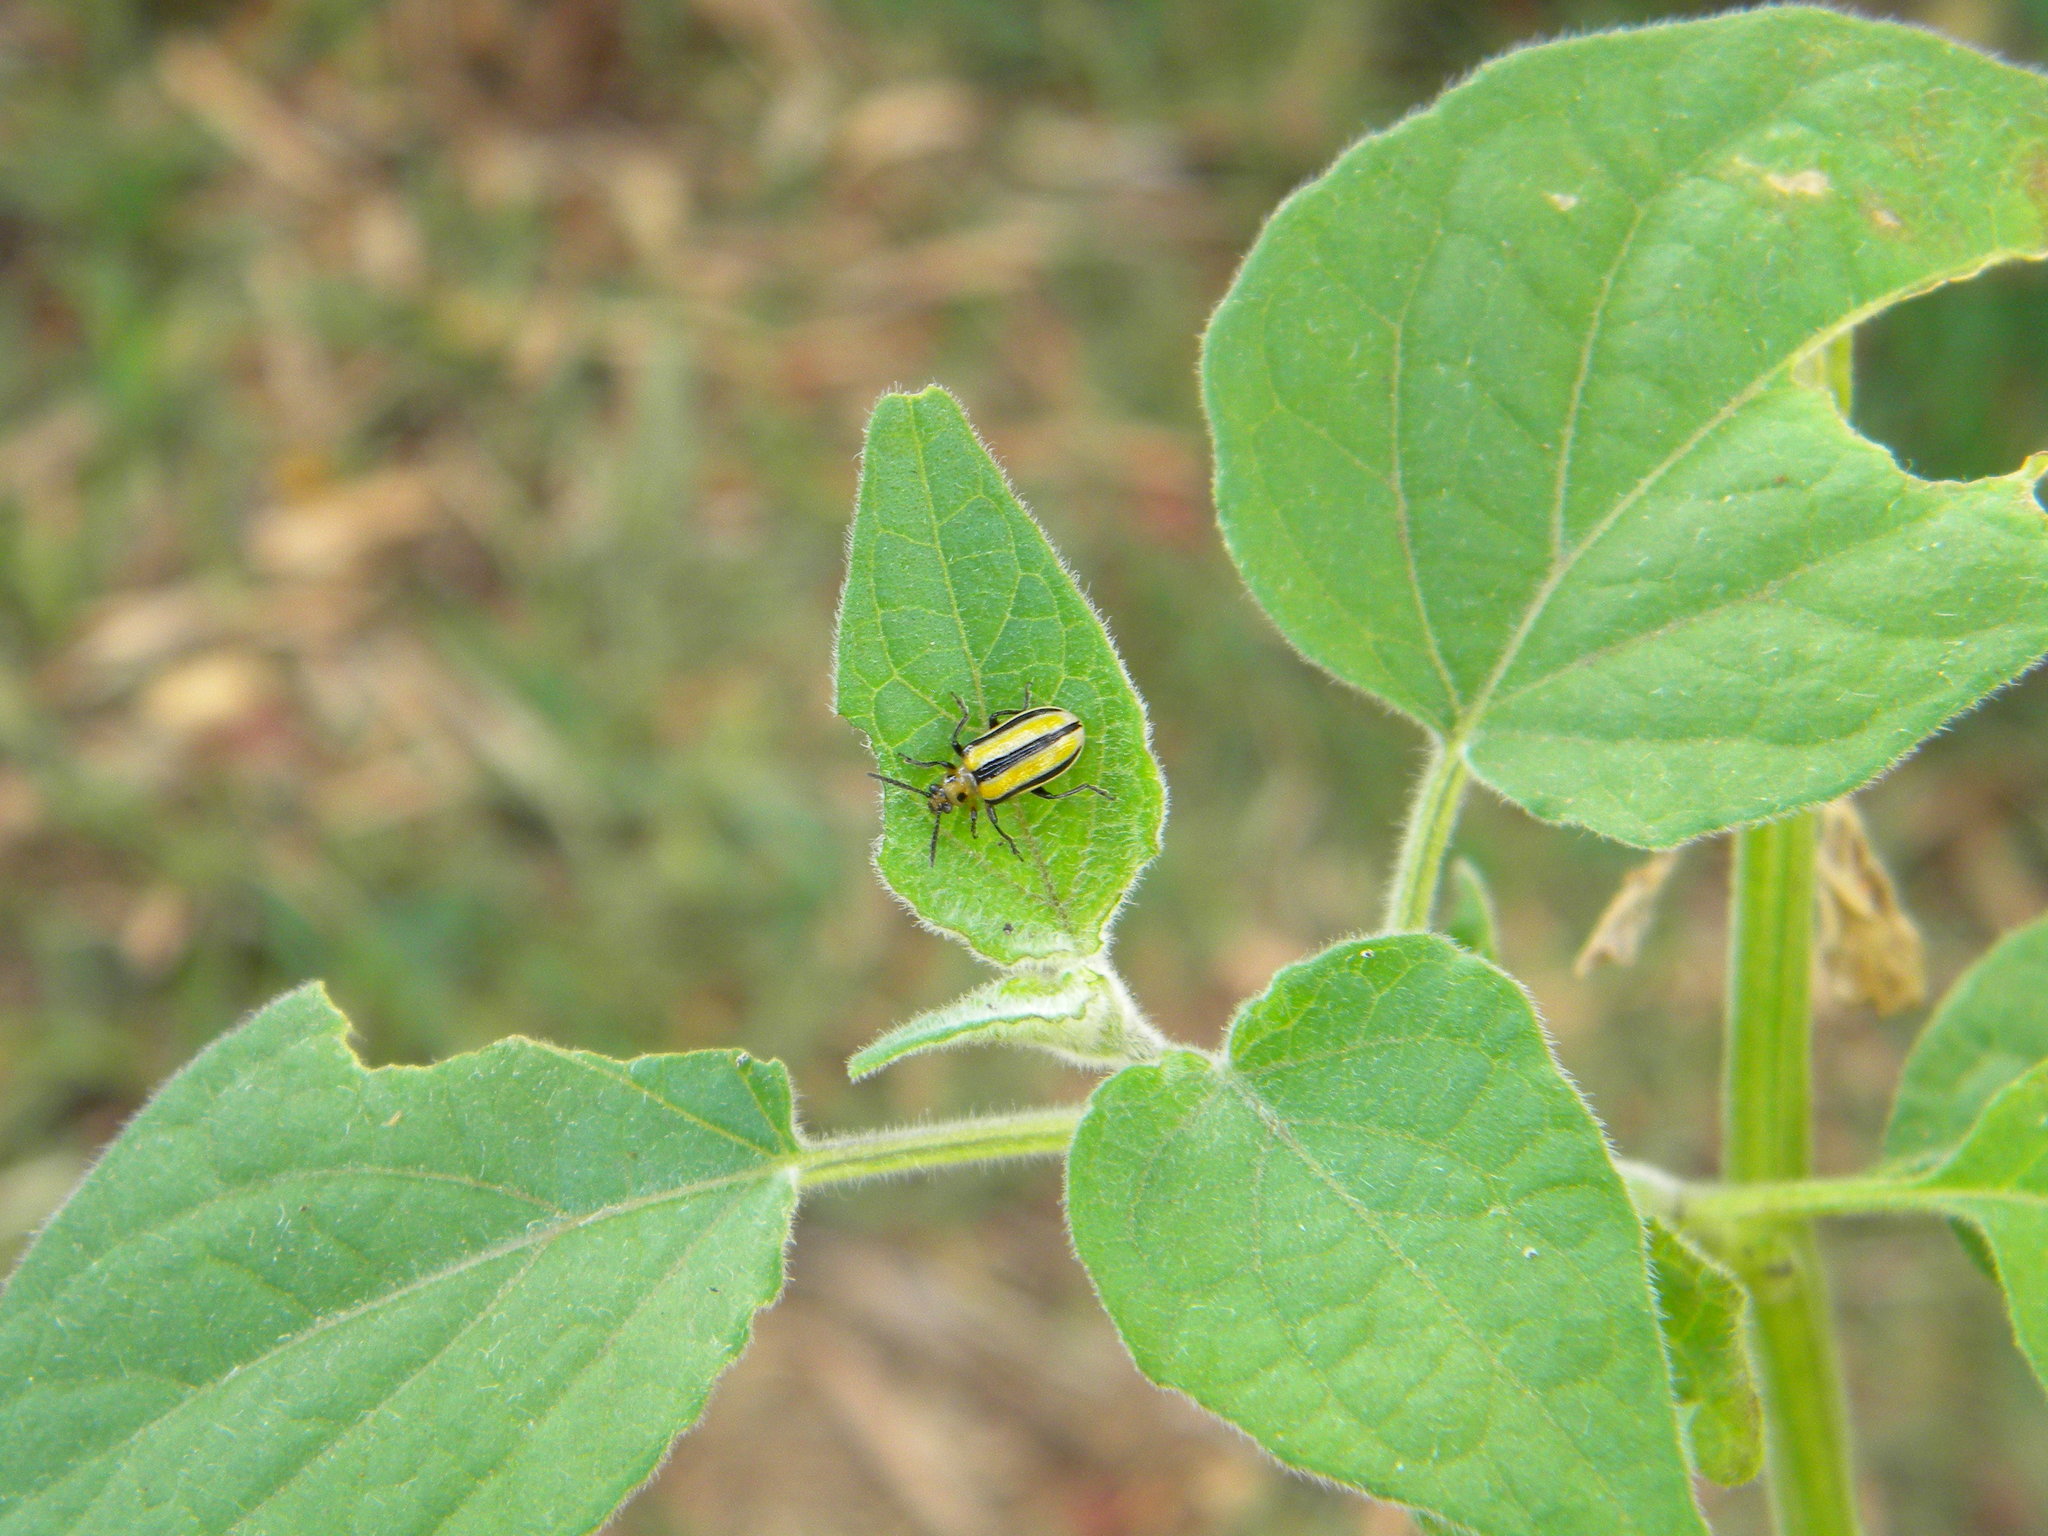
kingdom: Animalia
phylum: Arthropoda
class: Insecta
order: Coleoptera
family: Chrysomelidae
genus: Lema
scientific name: Lema daturaphila
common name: Leaf beetle
